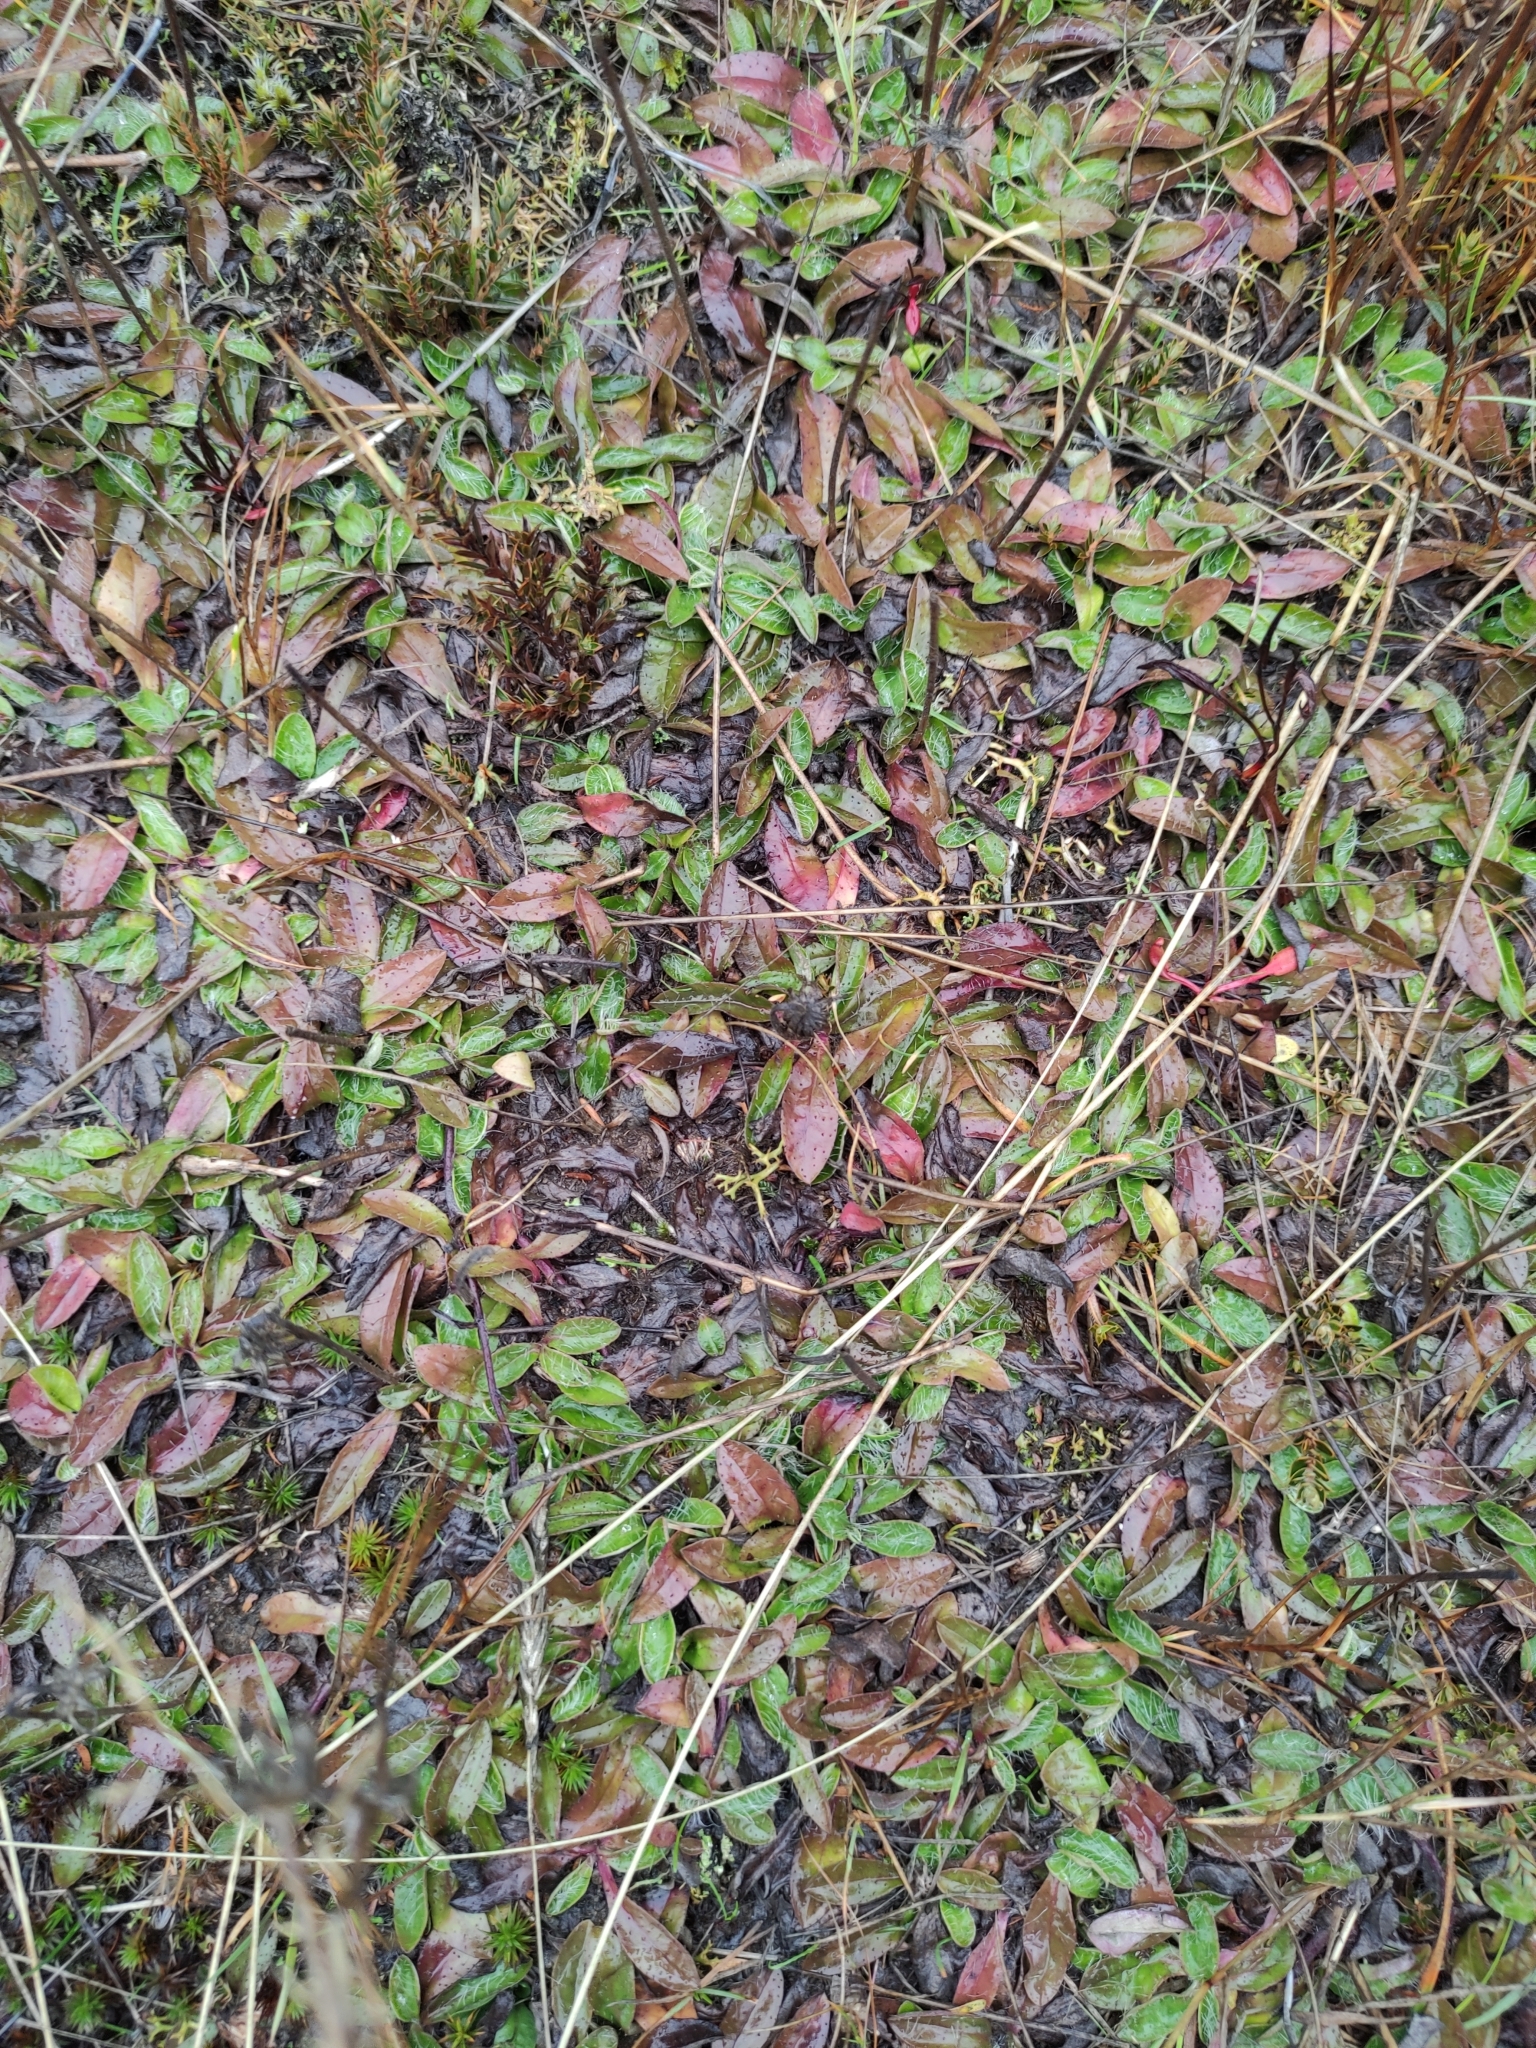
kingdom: Plantae
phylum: Tracheophyta
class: Magnoliopsida
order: Asterales
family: Asteraceae
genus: Pilosella
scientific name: Pilosella officinarum
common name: Mouse-ear hawkweed
